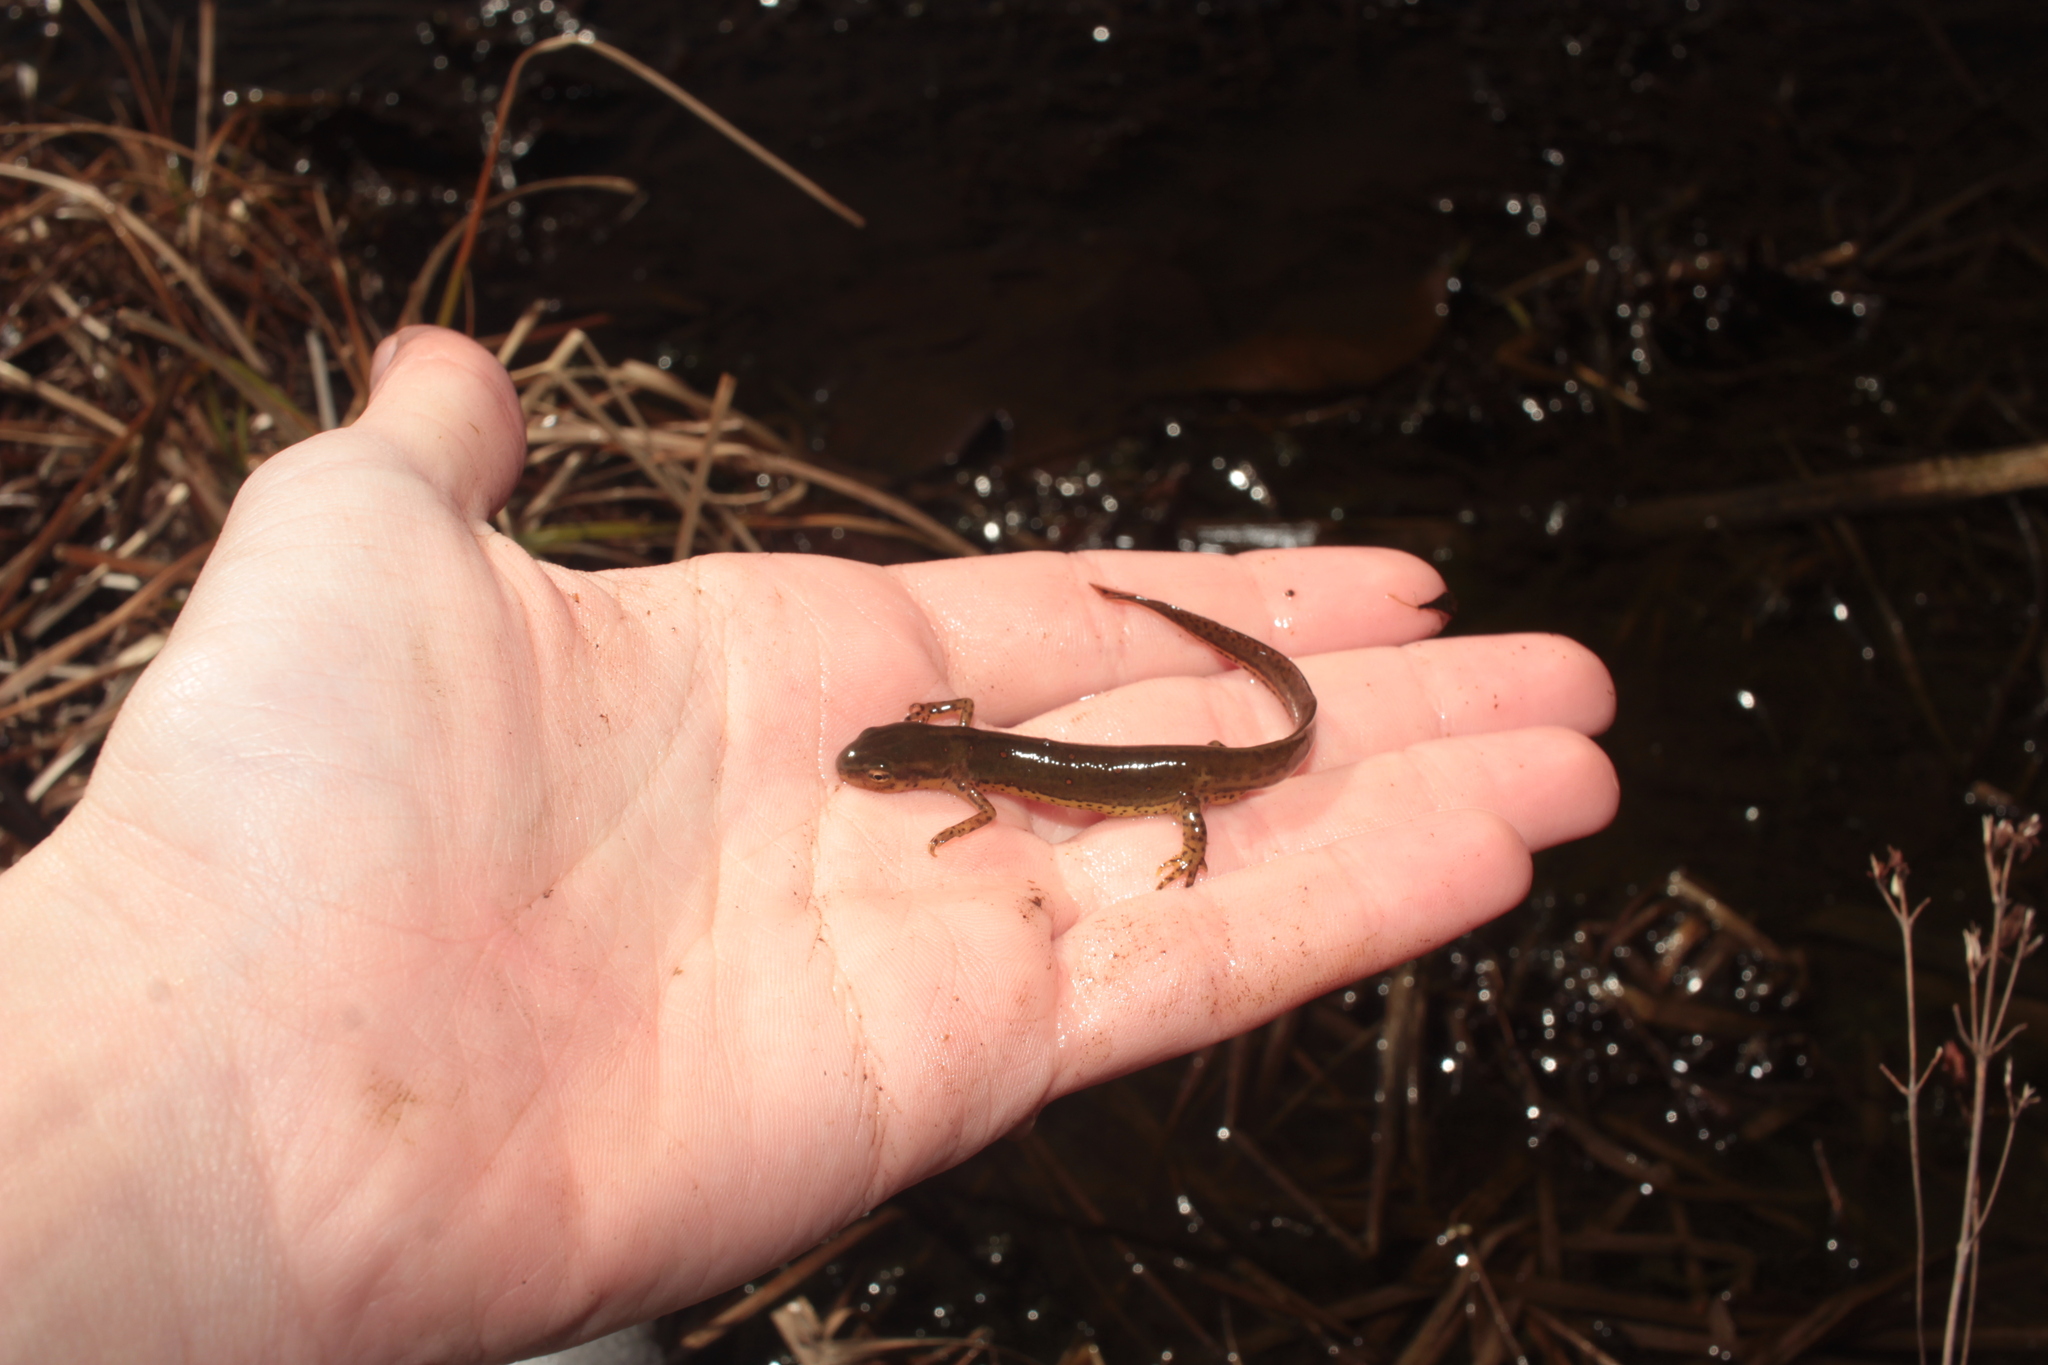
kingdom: Animalia
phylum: Chordata
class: Amphibia
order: Caudata
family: Salamandridae
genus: Notophthalmus
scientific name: Notophthalmus viridescens
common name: Eastern newt
